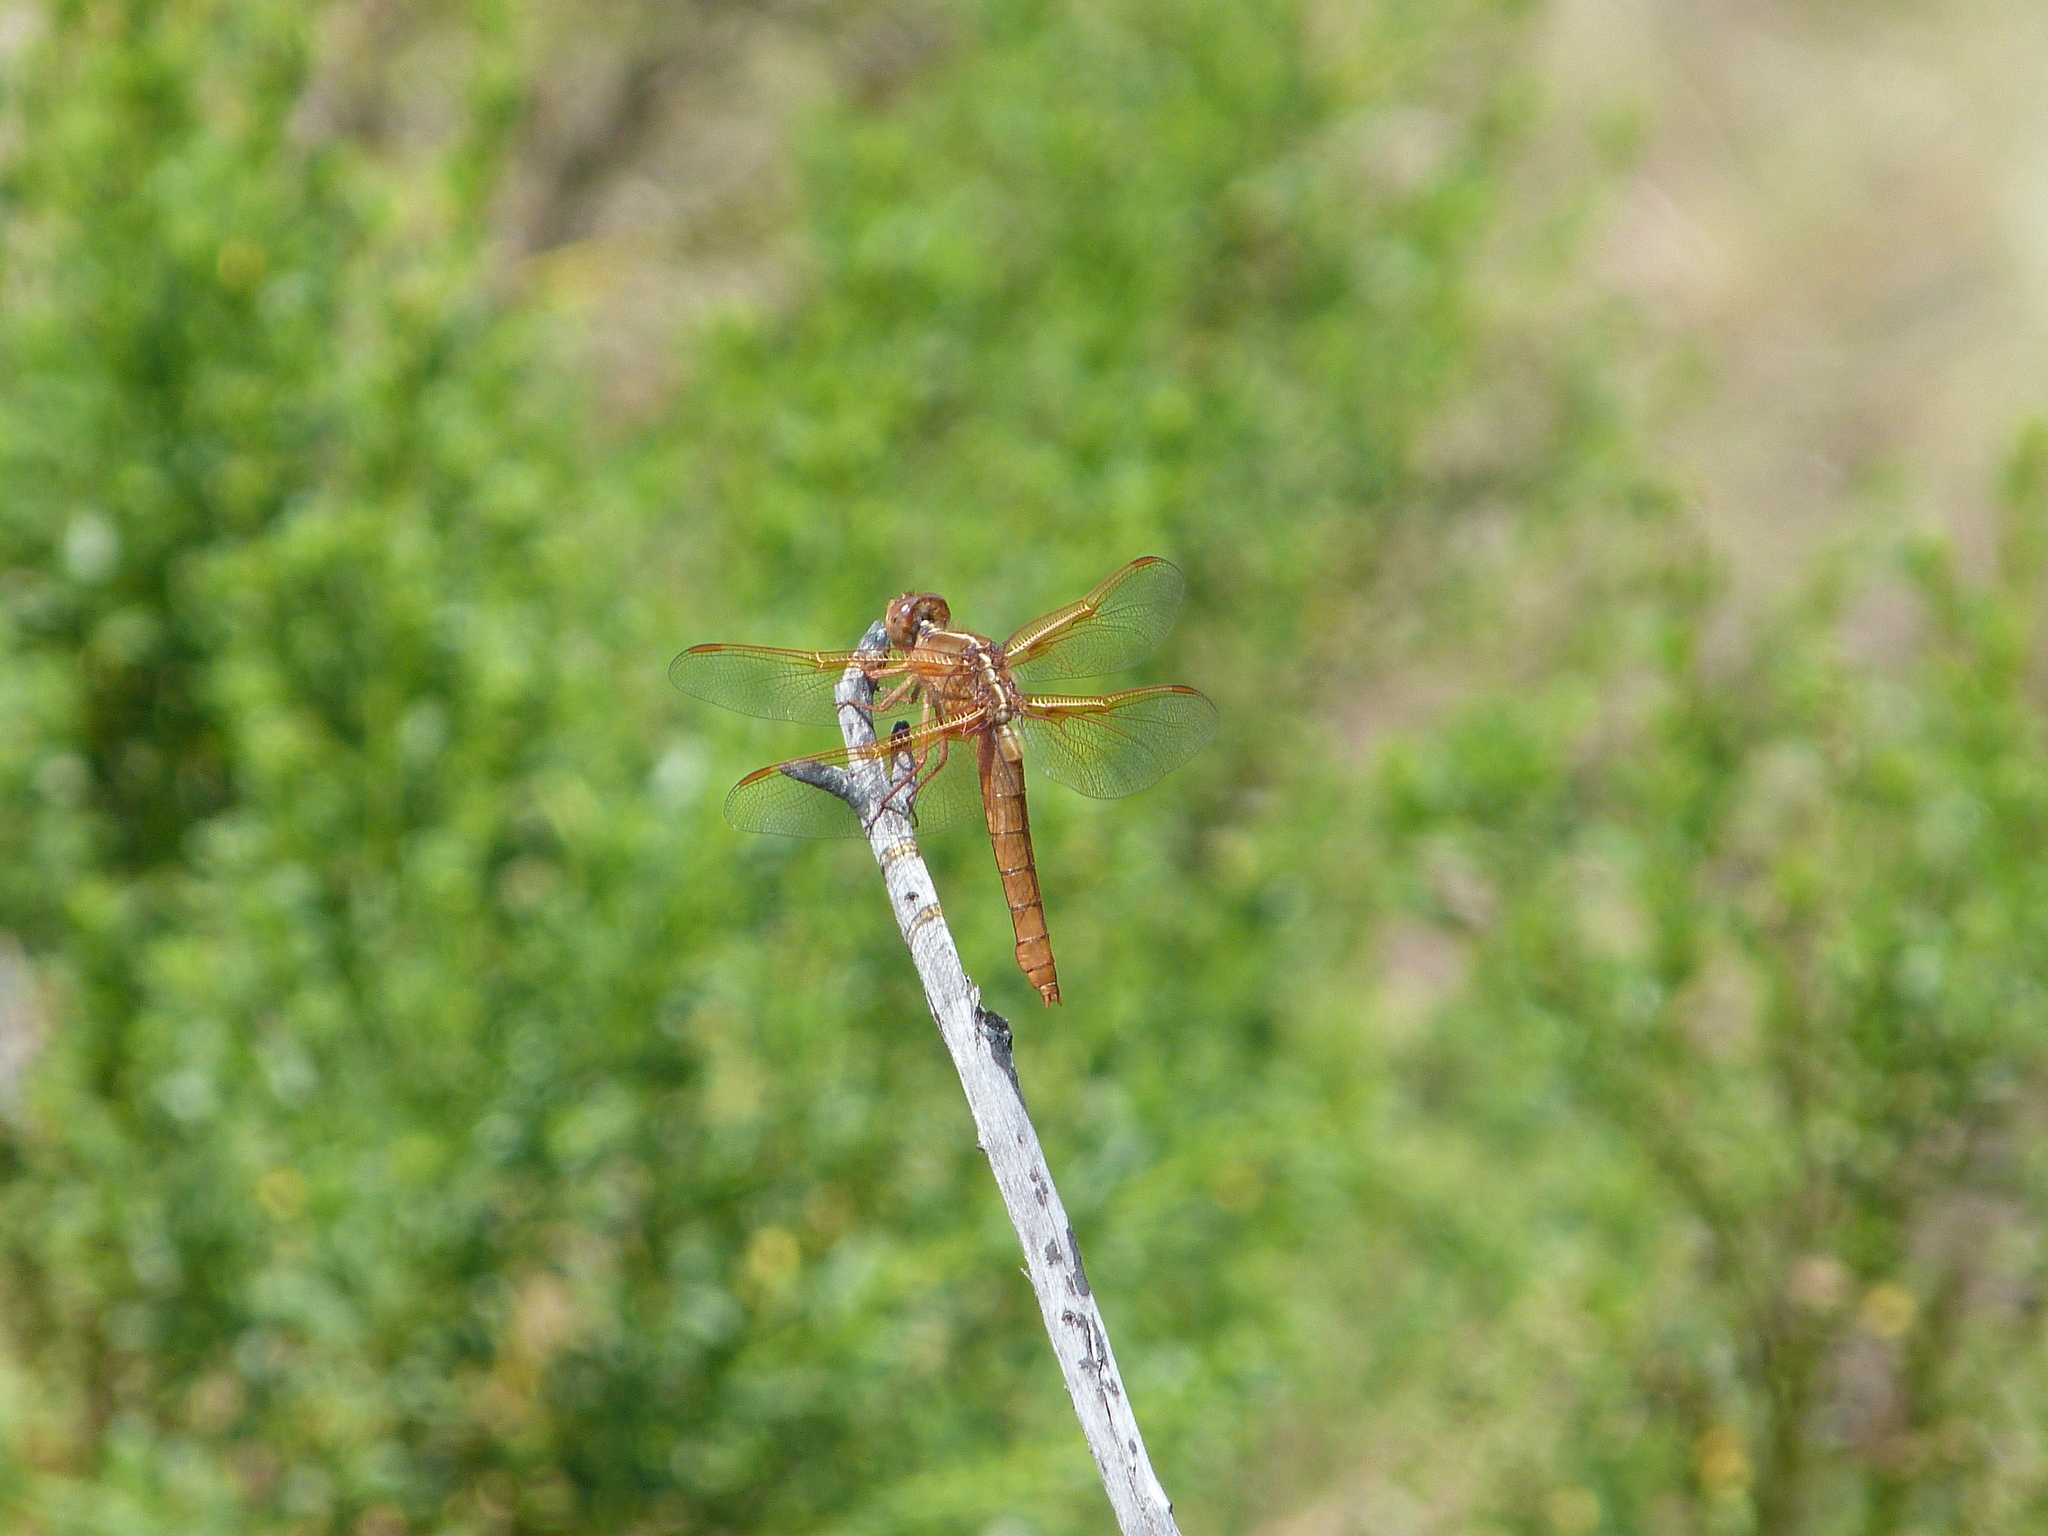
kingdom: Animalia
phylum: Arthropoda
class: Insecta
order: Odonata
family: Libellulidae
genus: Libellula
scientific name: Libellula saturata
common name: Flame skimmer
